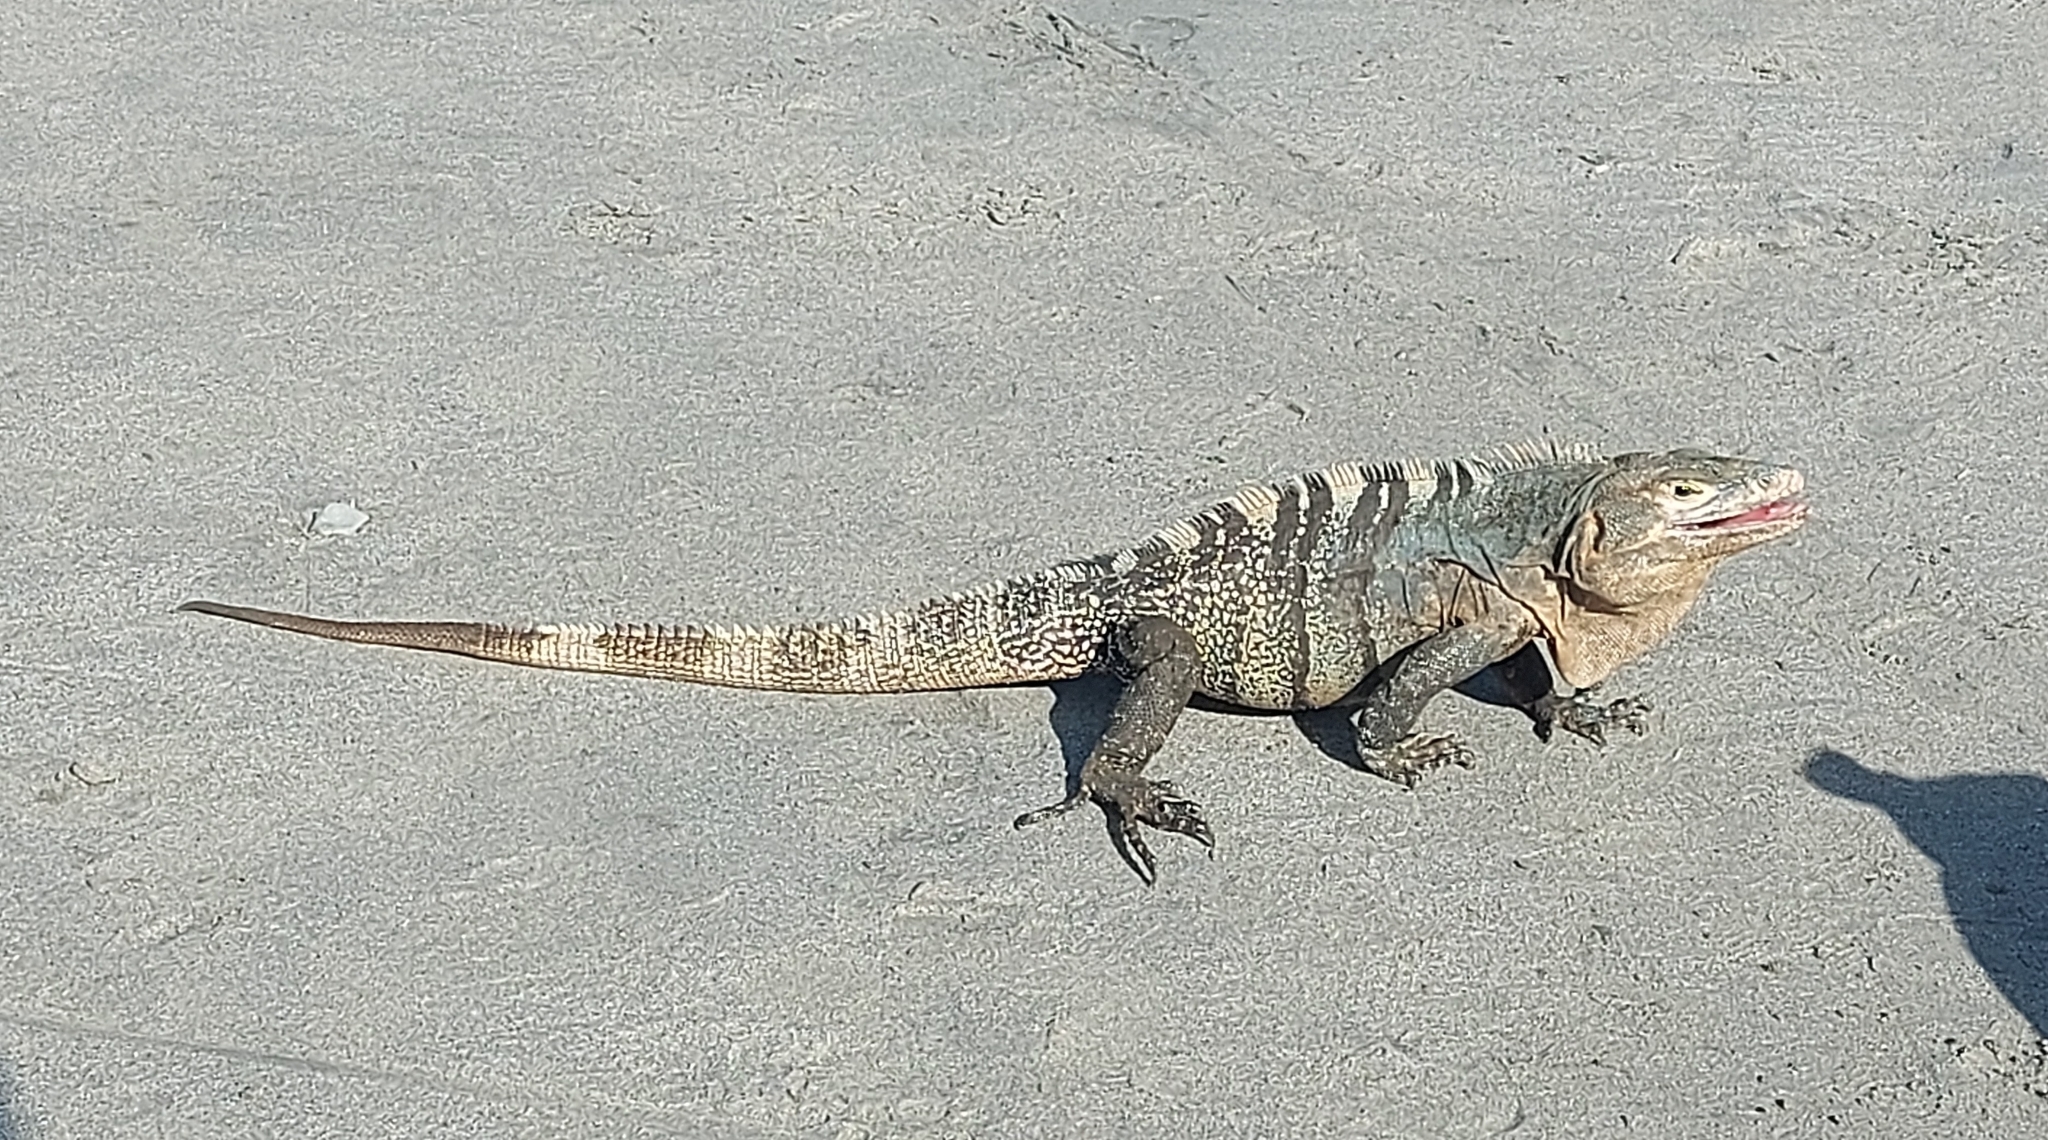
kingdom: Animalia
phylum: Chordata
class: Squamata
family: Iguanidae
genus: Ctenosaura
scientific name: Ctenosaura similis
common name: Black spiny-tailed iguana
